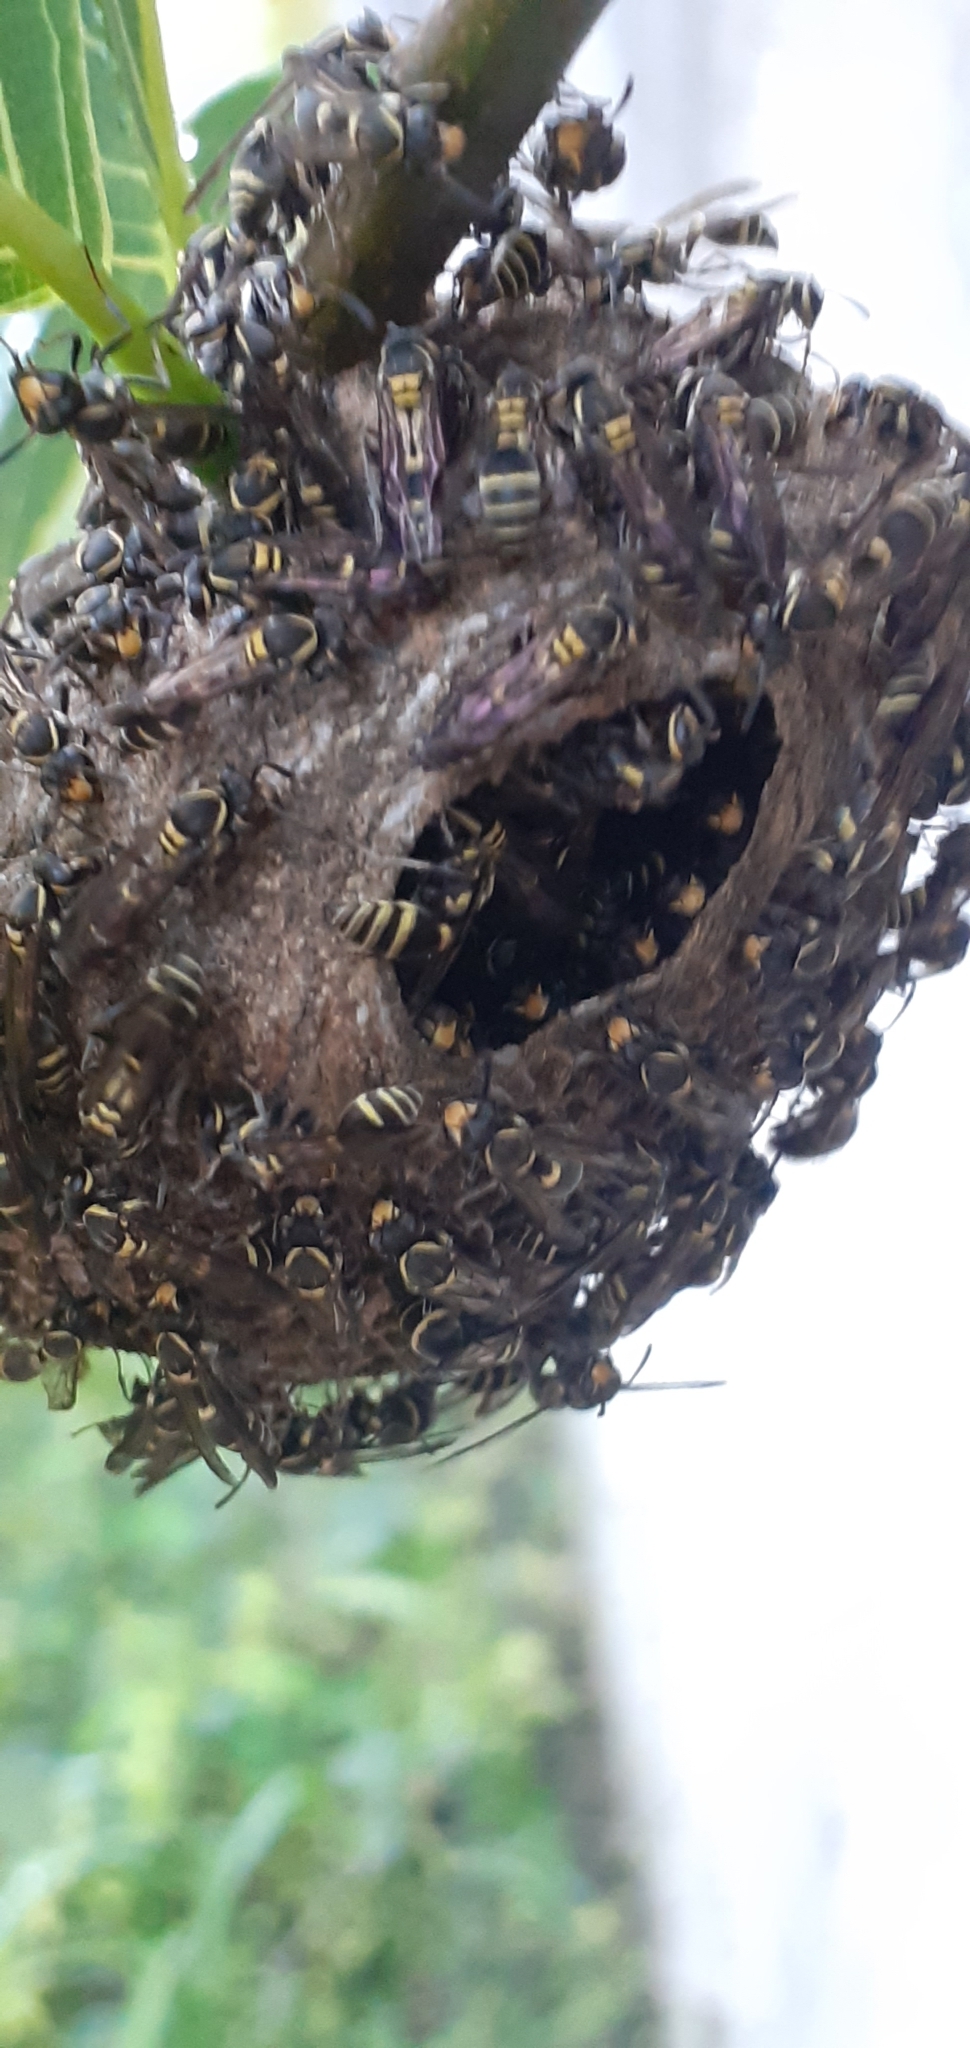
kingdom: Animalia
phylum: Arthropoda
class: Insecta
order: Hymenoptera
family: Eumenidae
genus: Polybia
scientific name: Polybia occidentalis
